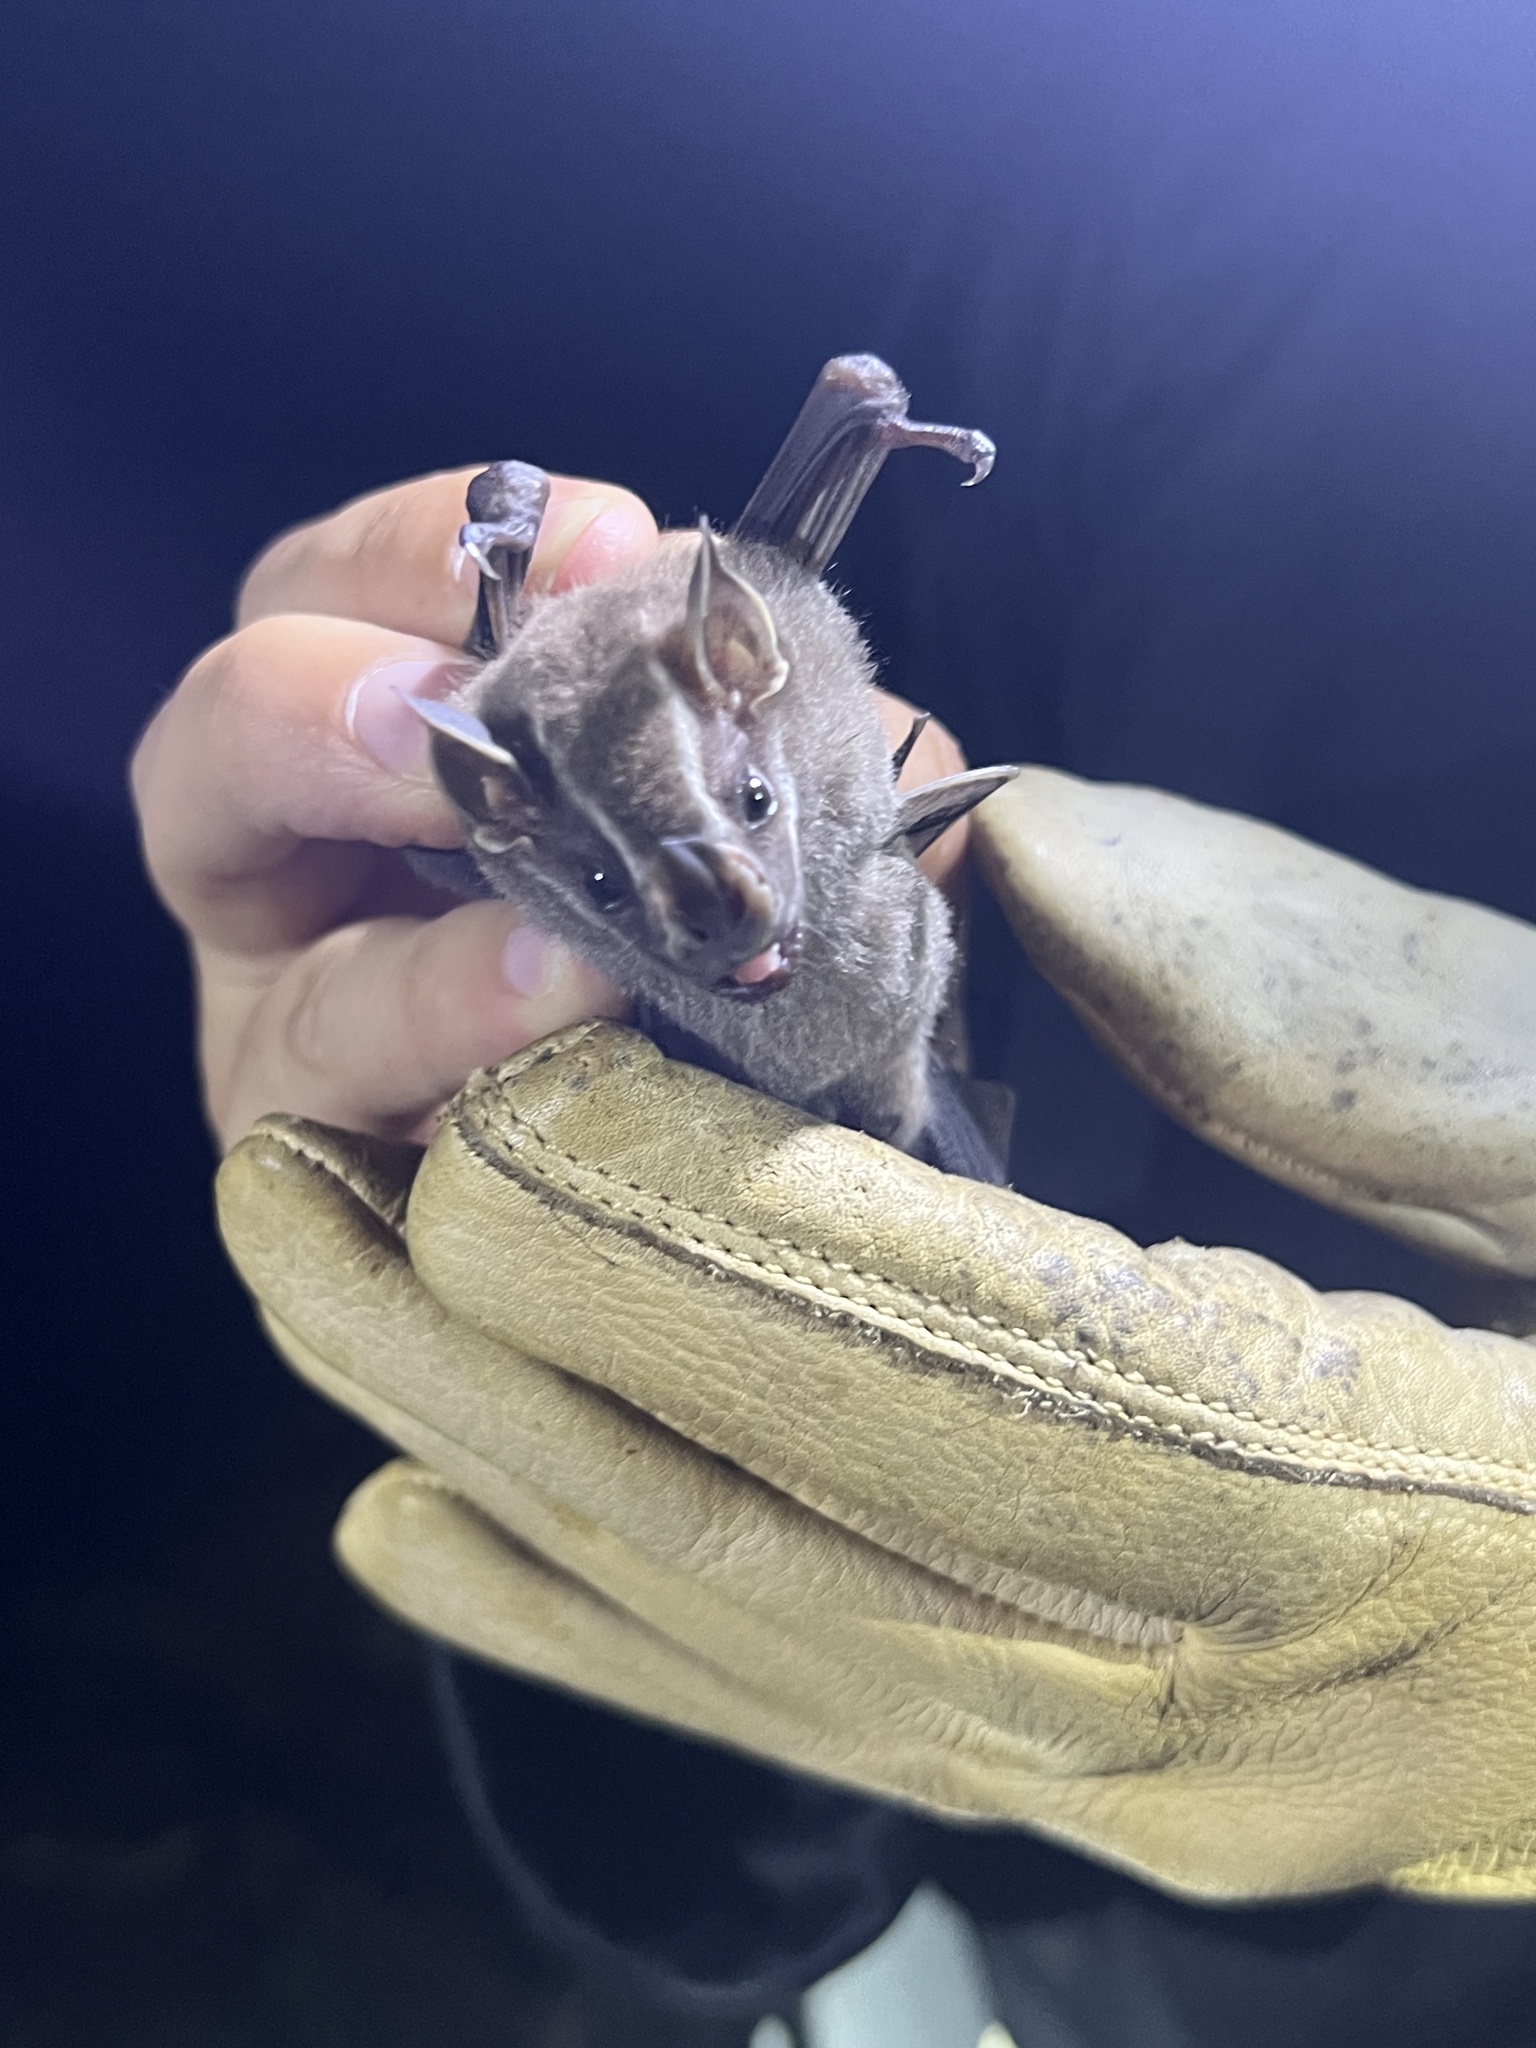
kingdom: Animalia
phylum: Chordata
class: Mammalia
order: Chiroptera
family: Phyllostomidae
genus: Uroderma
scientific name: Uroderma bilobatum
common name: Common tent-making bat
